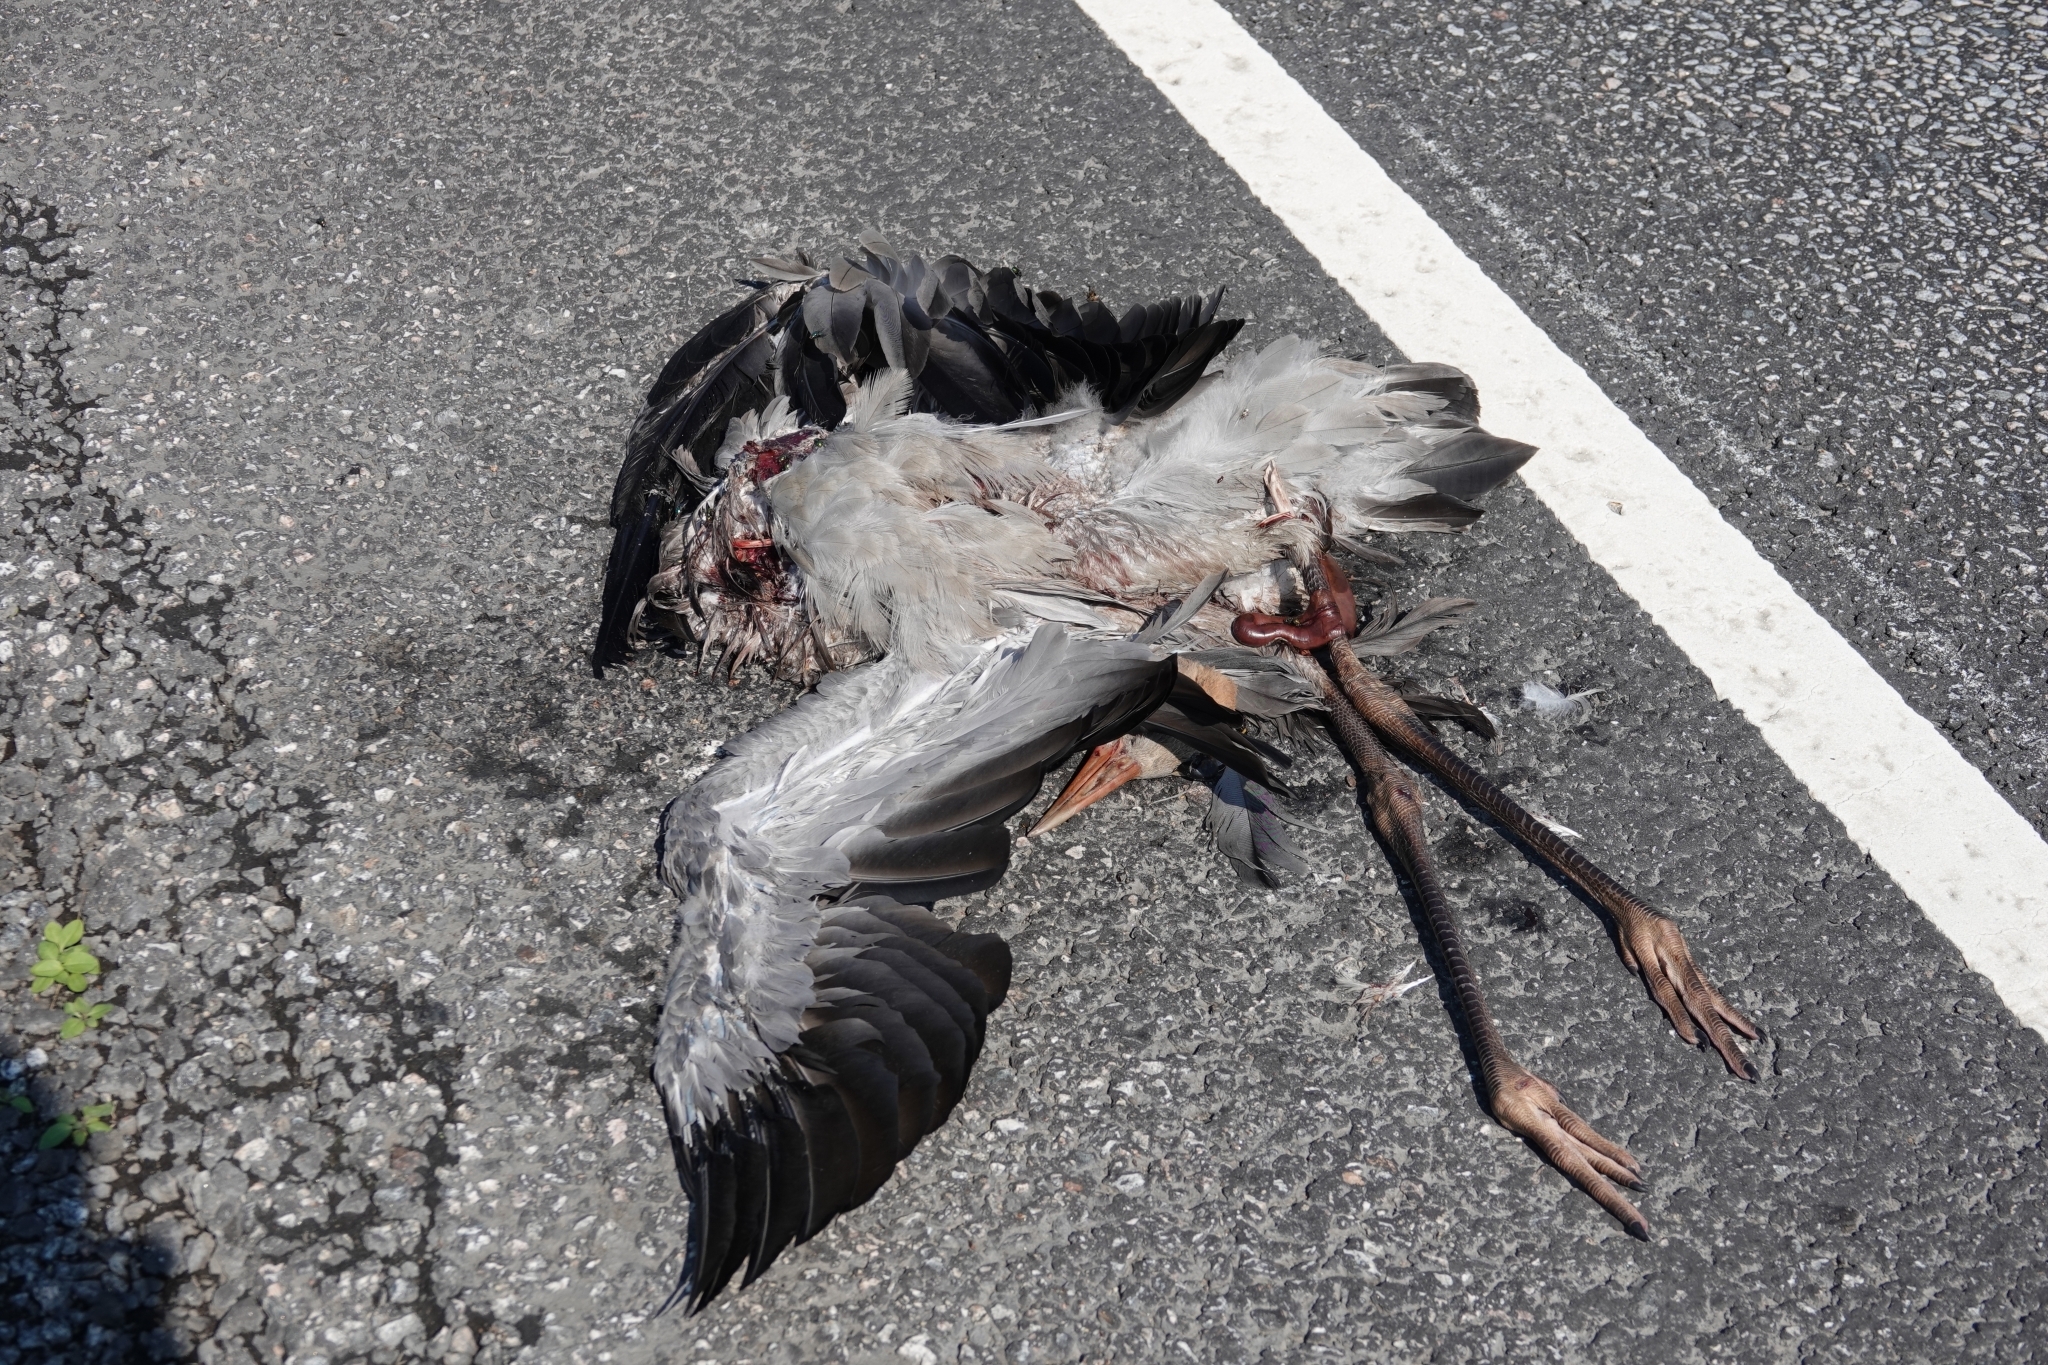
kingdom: Animalia
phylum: Chordata
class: Aves
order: Gruiformes
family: Gruidae
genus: Grus
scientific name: Grus grus
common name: Common crane
